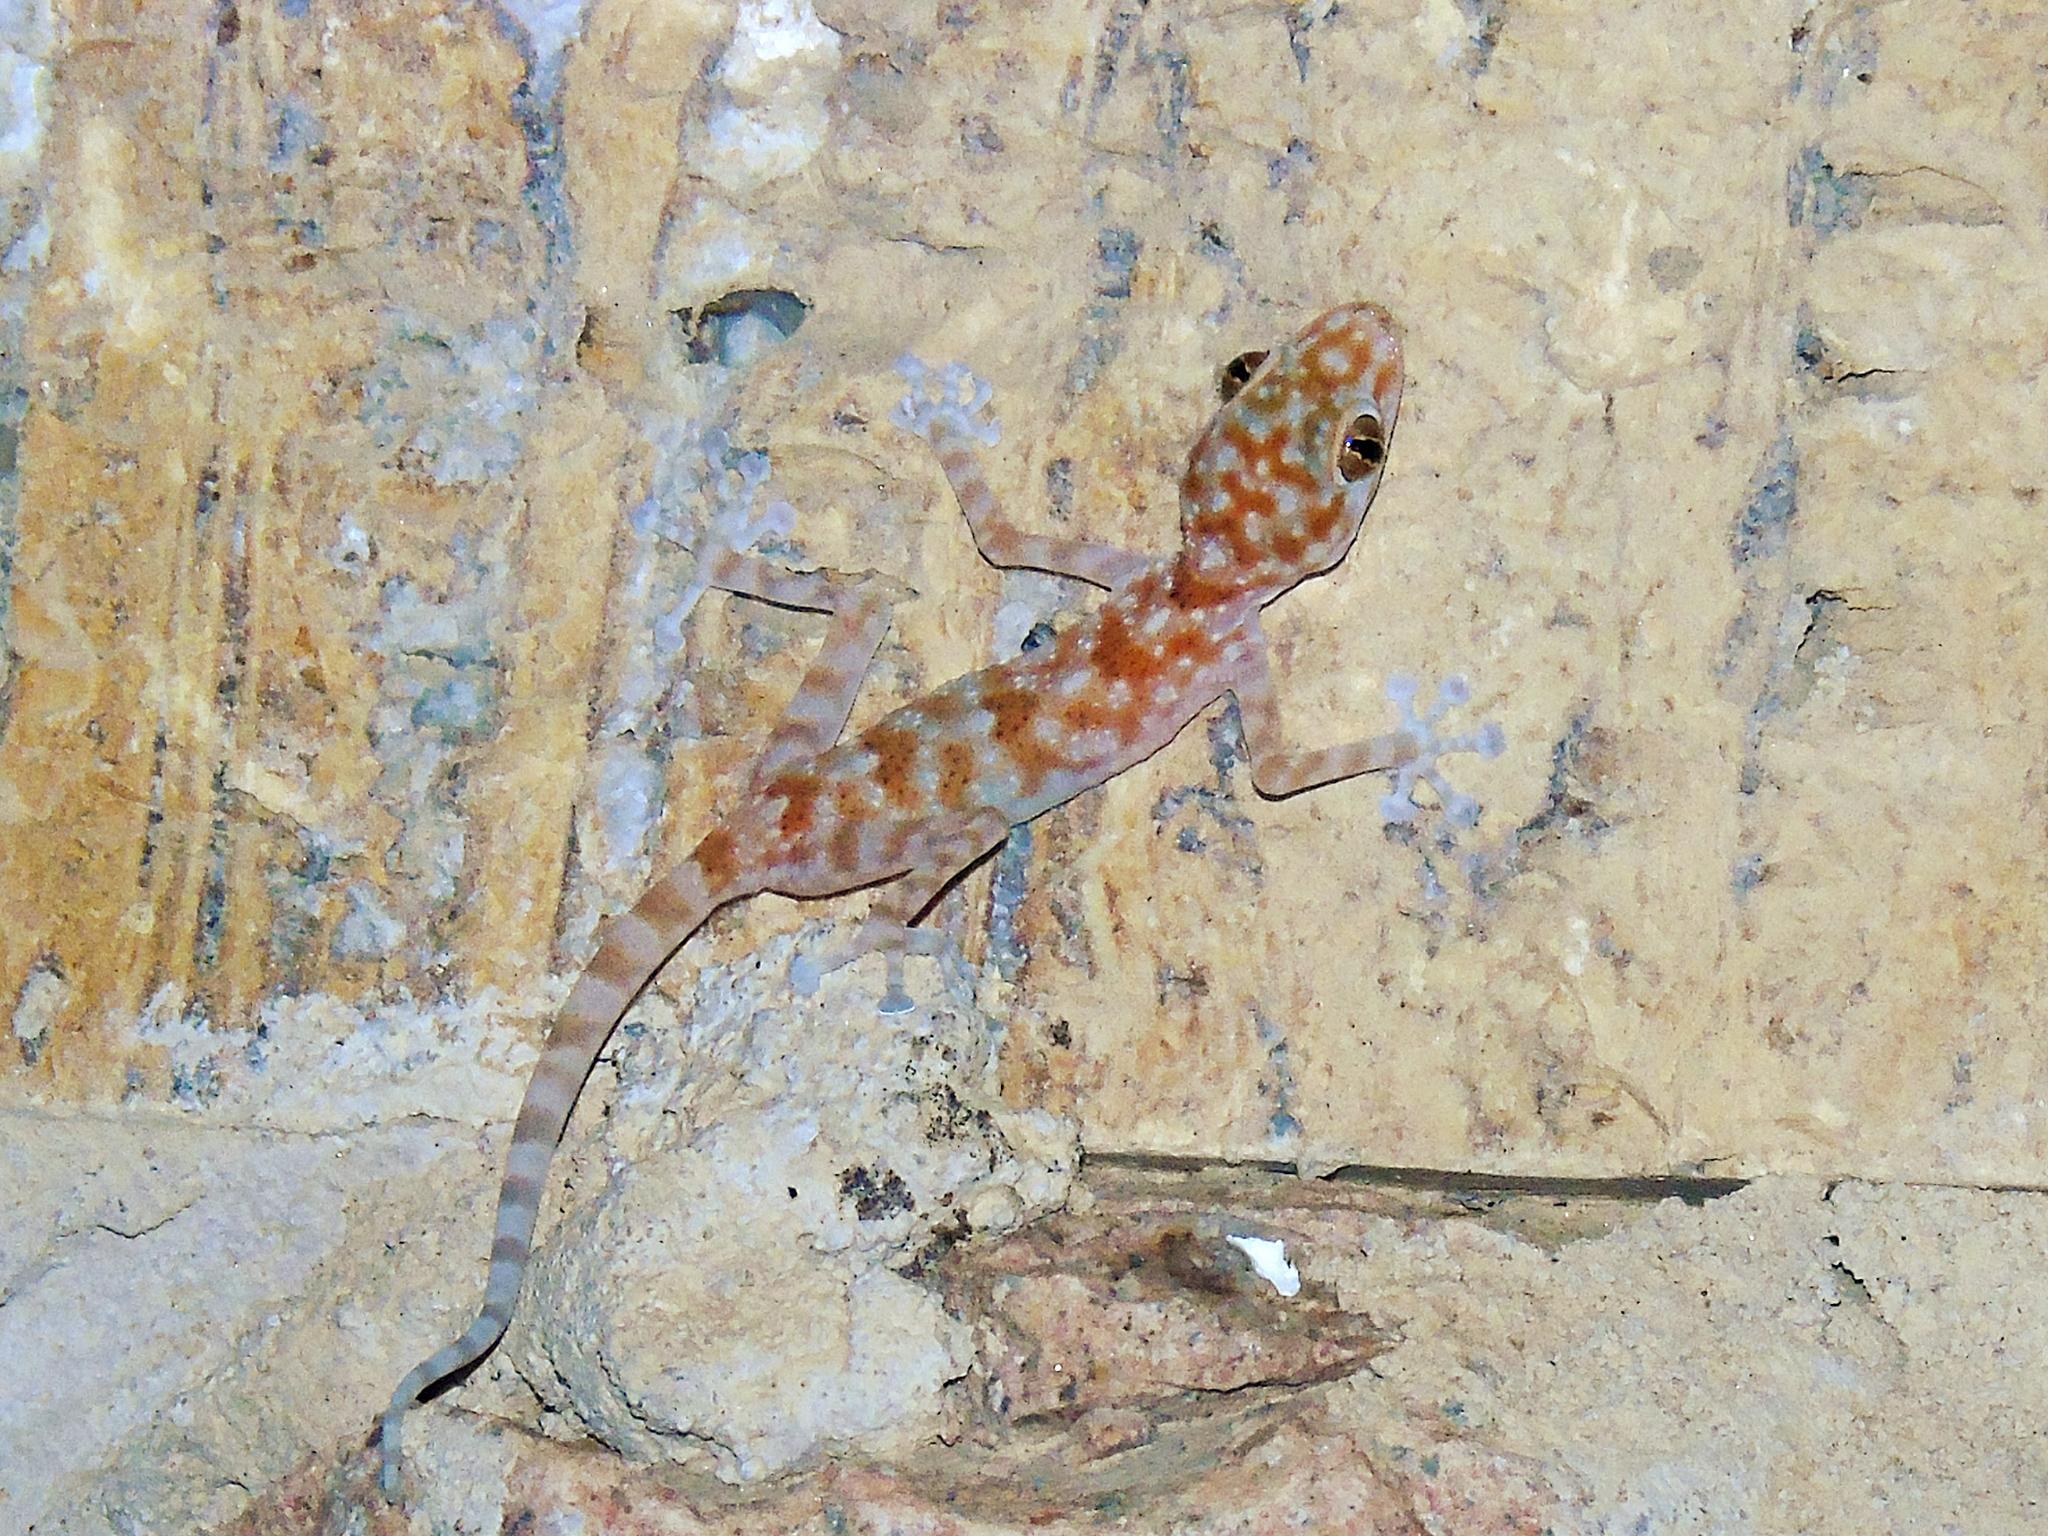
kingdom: Animalia
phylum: Chordata
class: Squamata
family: Phyllodactylidae
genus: Ptyodactylus
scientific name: Ptyodactylus hasselquistii
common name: Hasselquist’s fan-footed gecko
